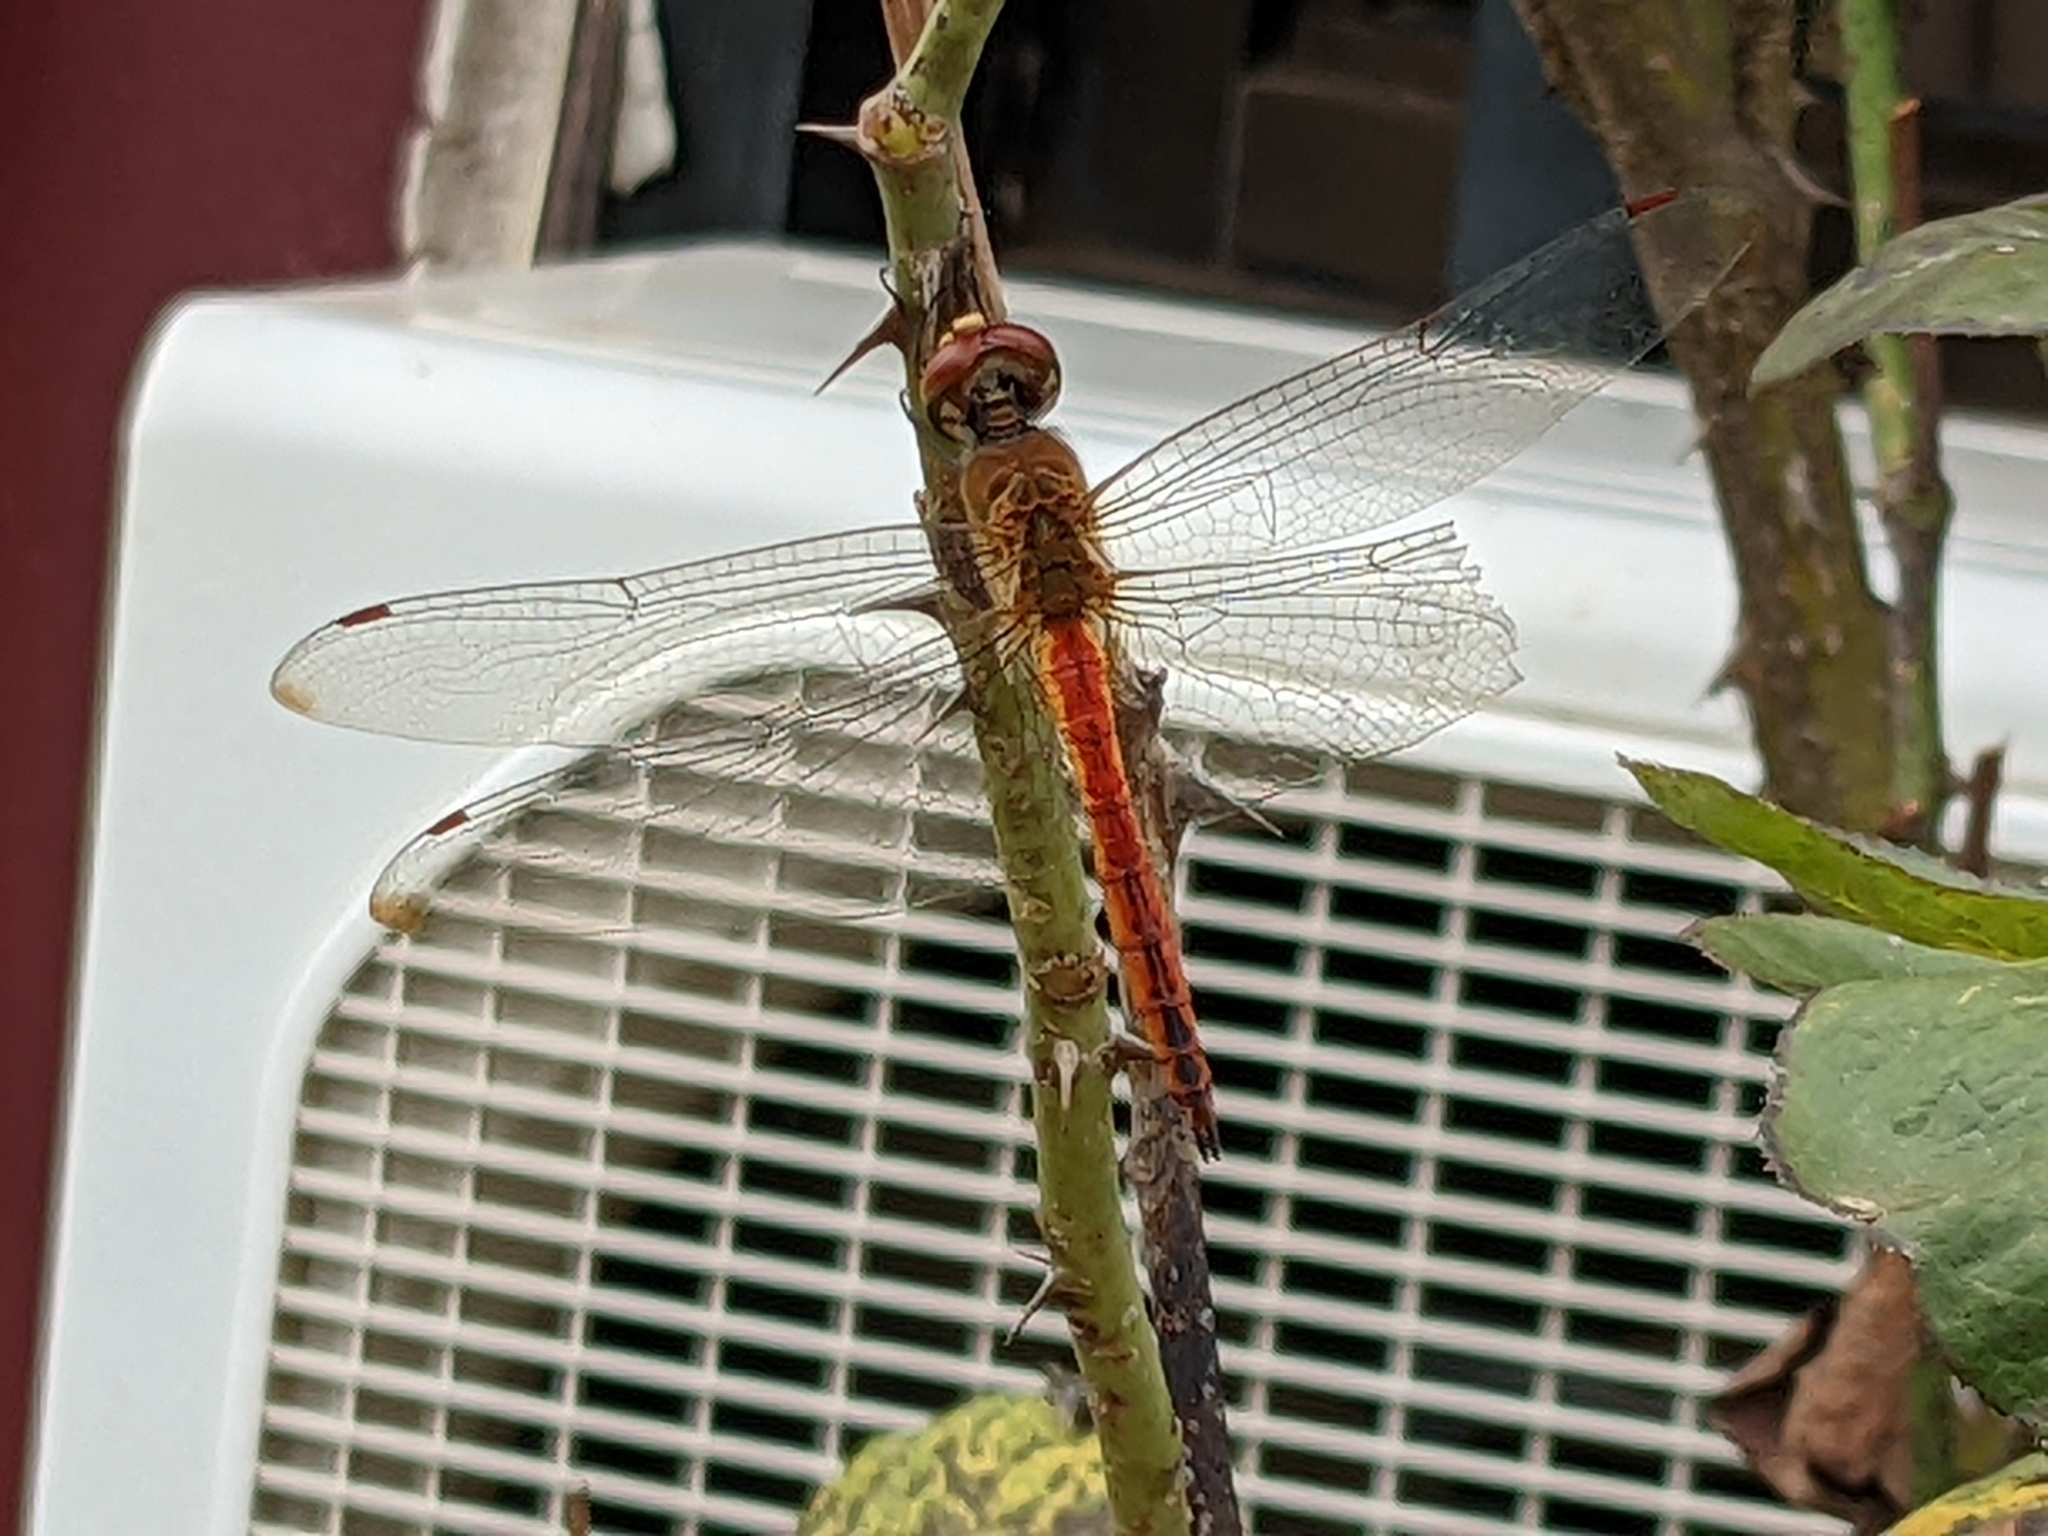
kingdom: Animalia
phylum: Arthropoda
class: Insecta
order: Odonata
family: Libellulidae
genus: Pantala
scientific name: Pantala flavescens
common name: Wandering glider
